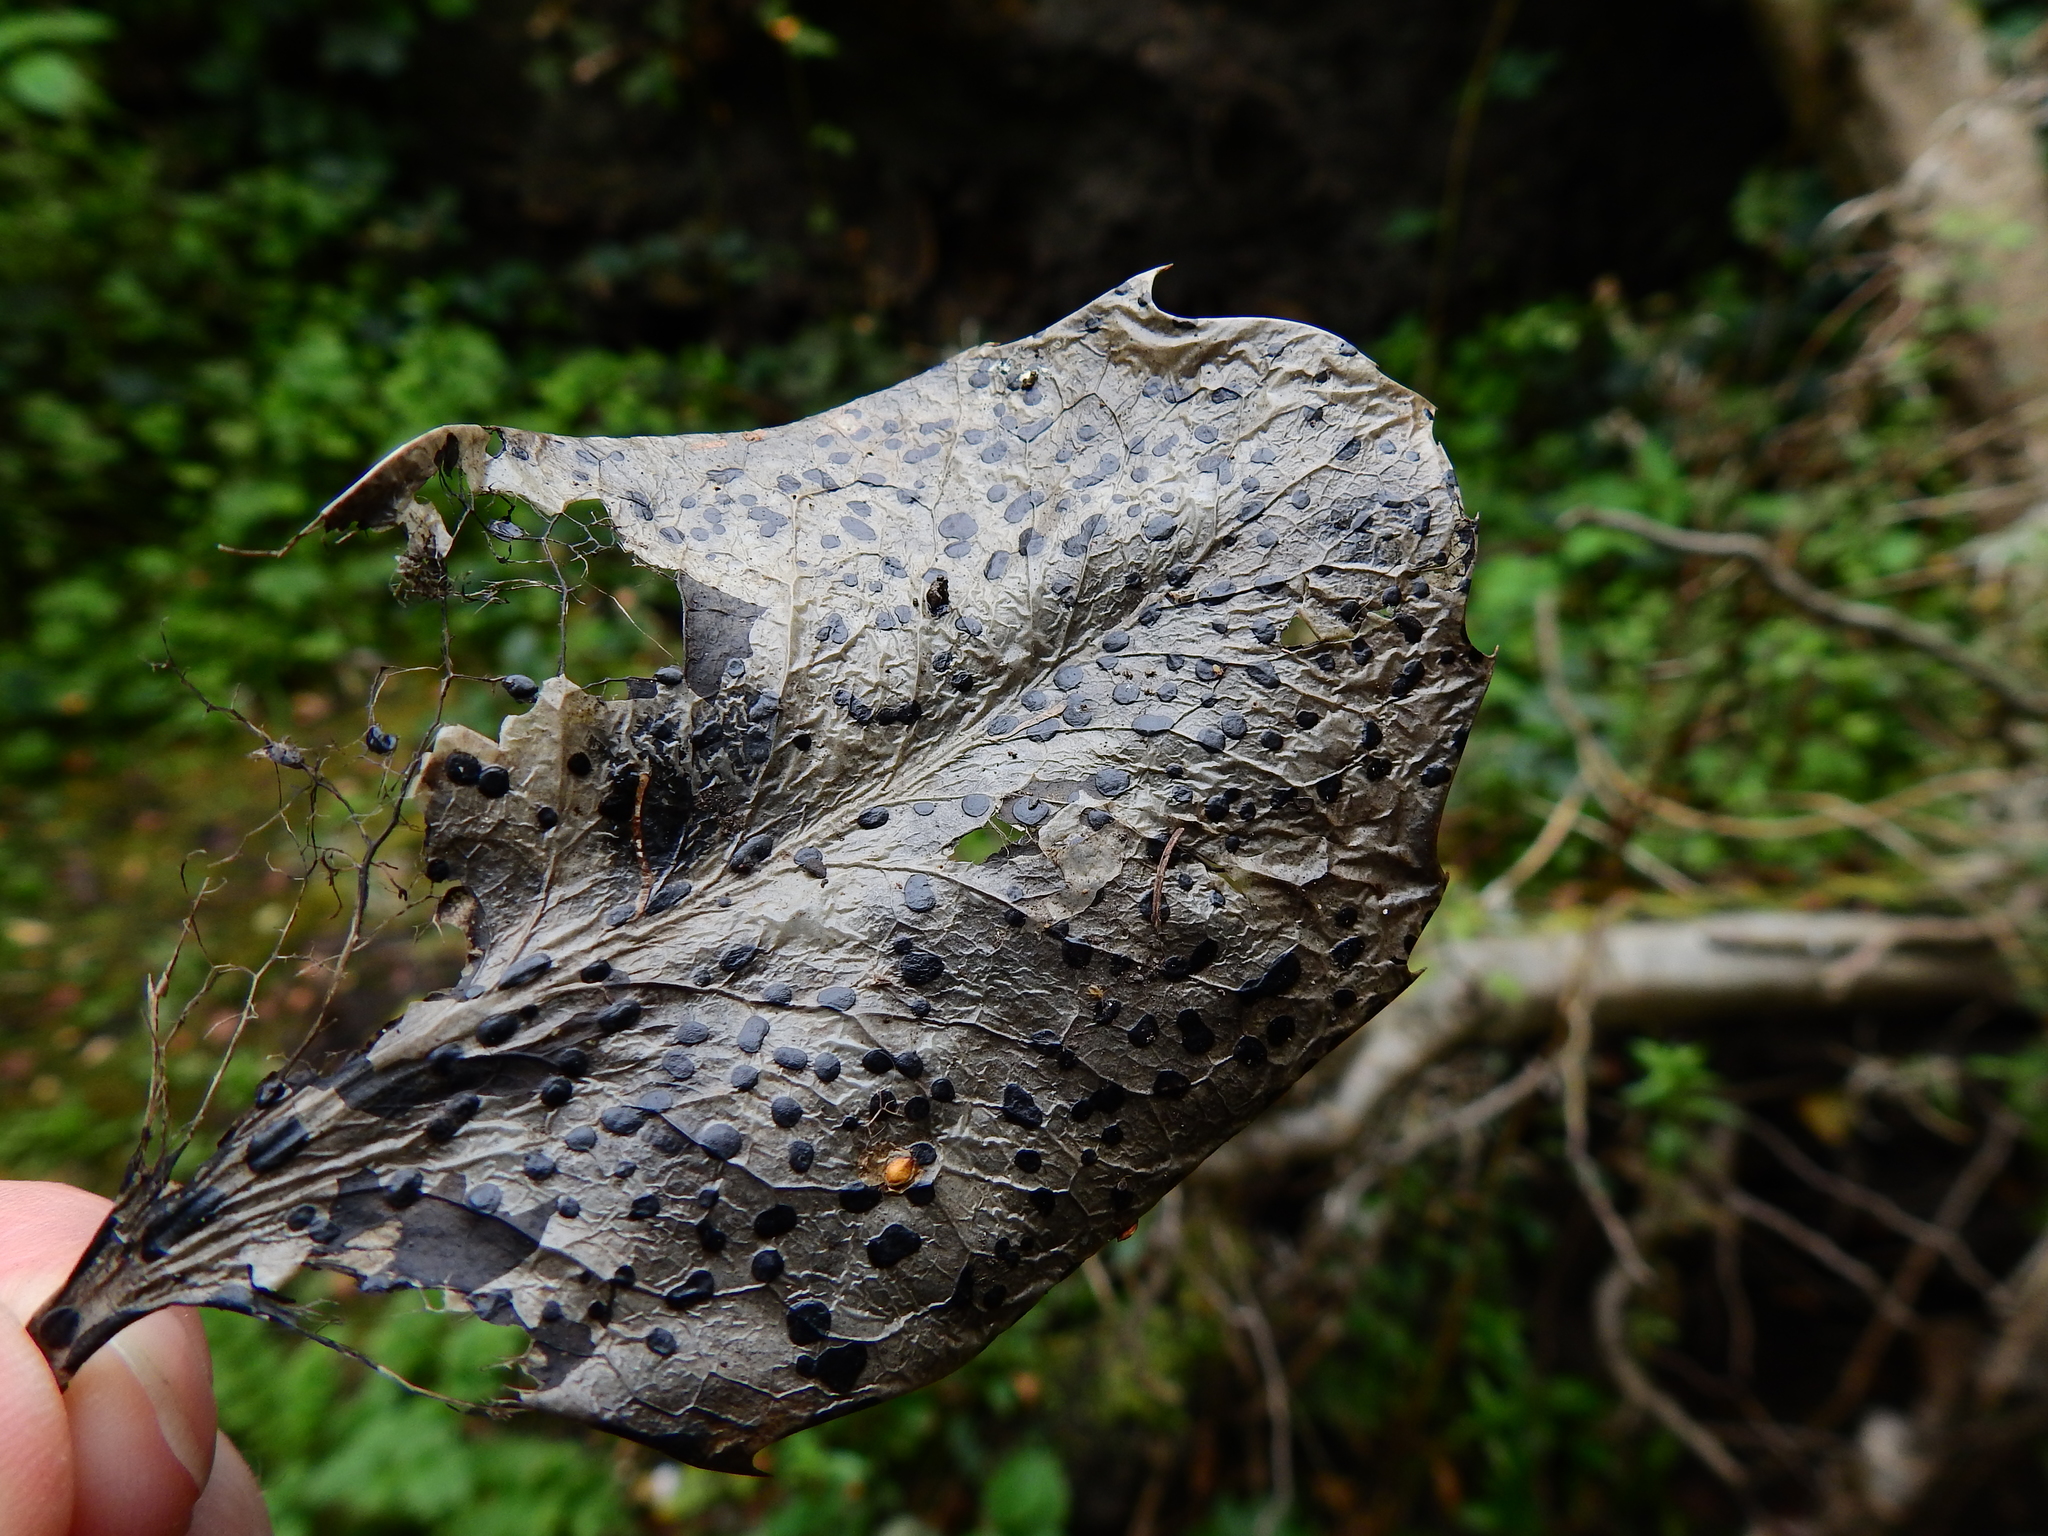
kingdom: Fungi
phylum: Ascomycota
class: Leotiomycetes
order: Helotiales
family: Cenangiaceae
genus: Trochila
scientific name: Trochila ilicina
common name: Holly speckle
